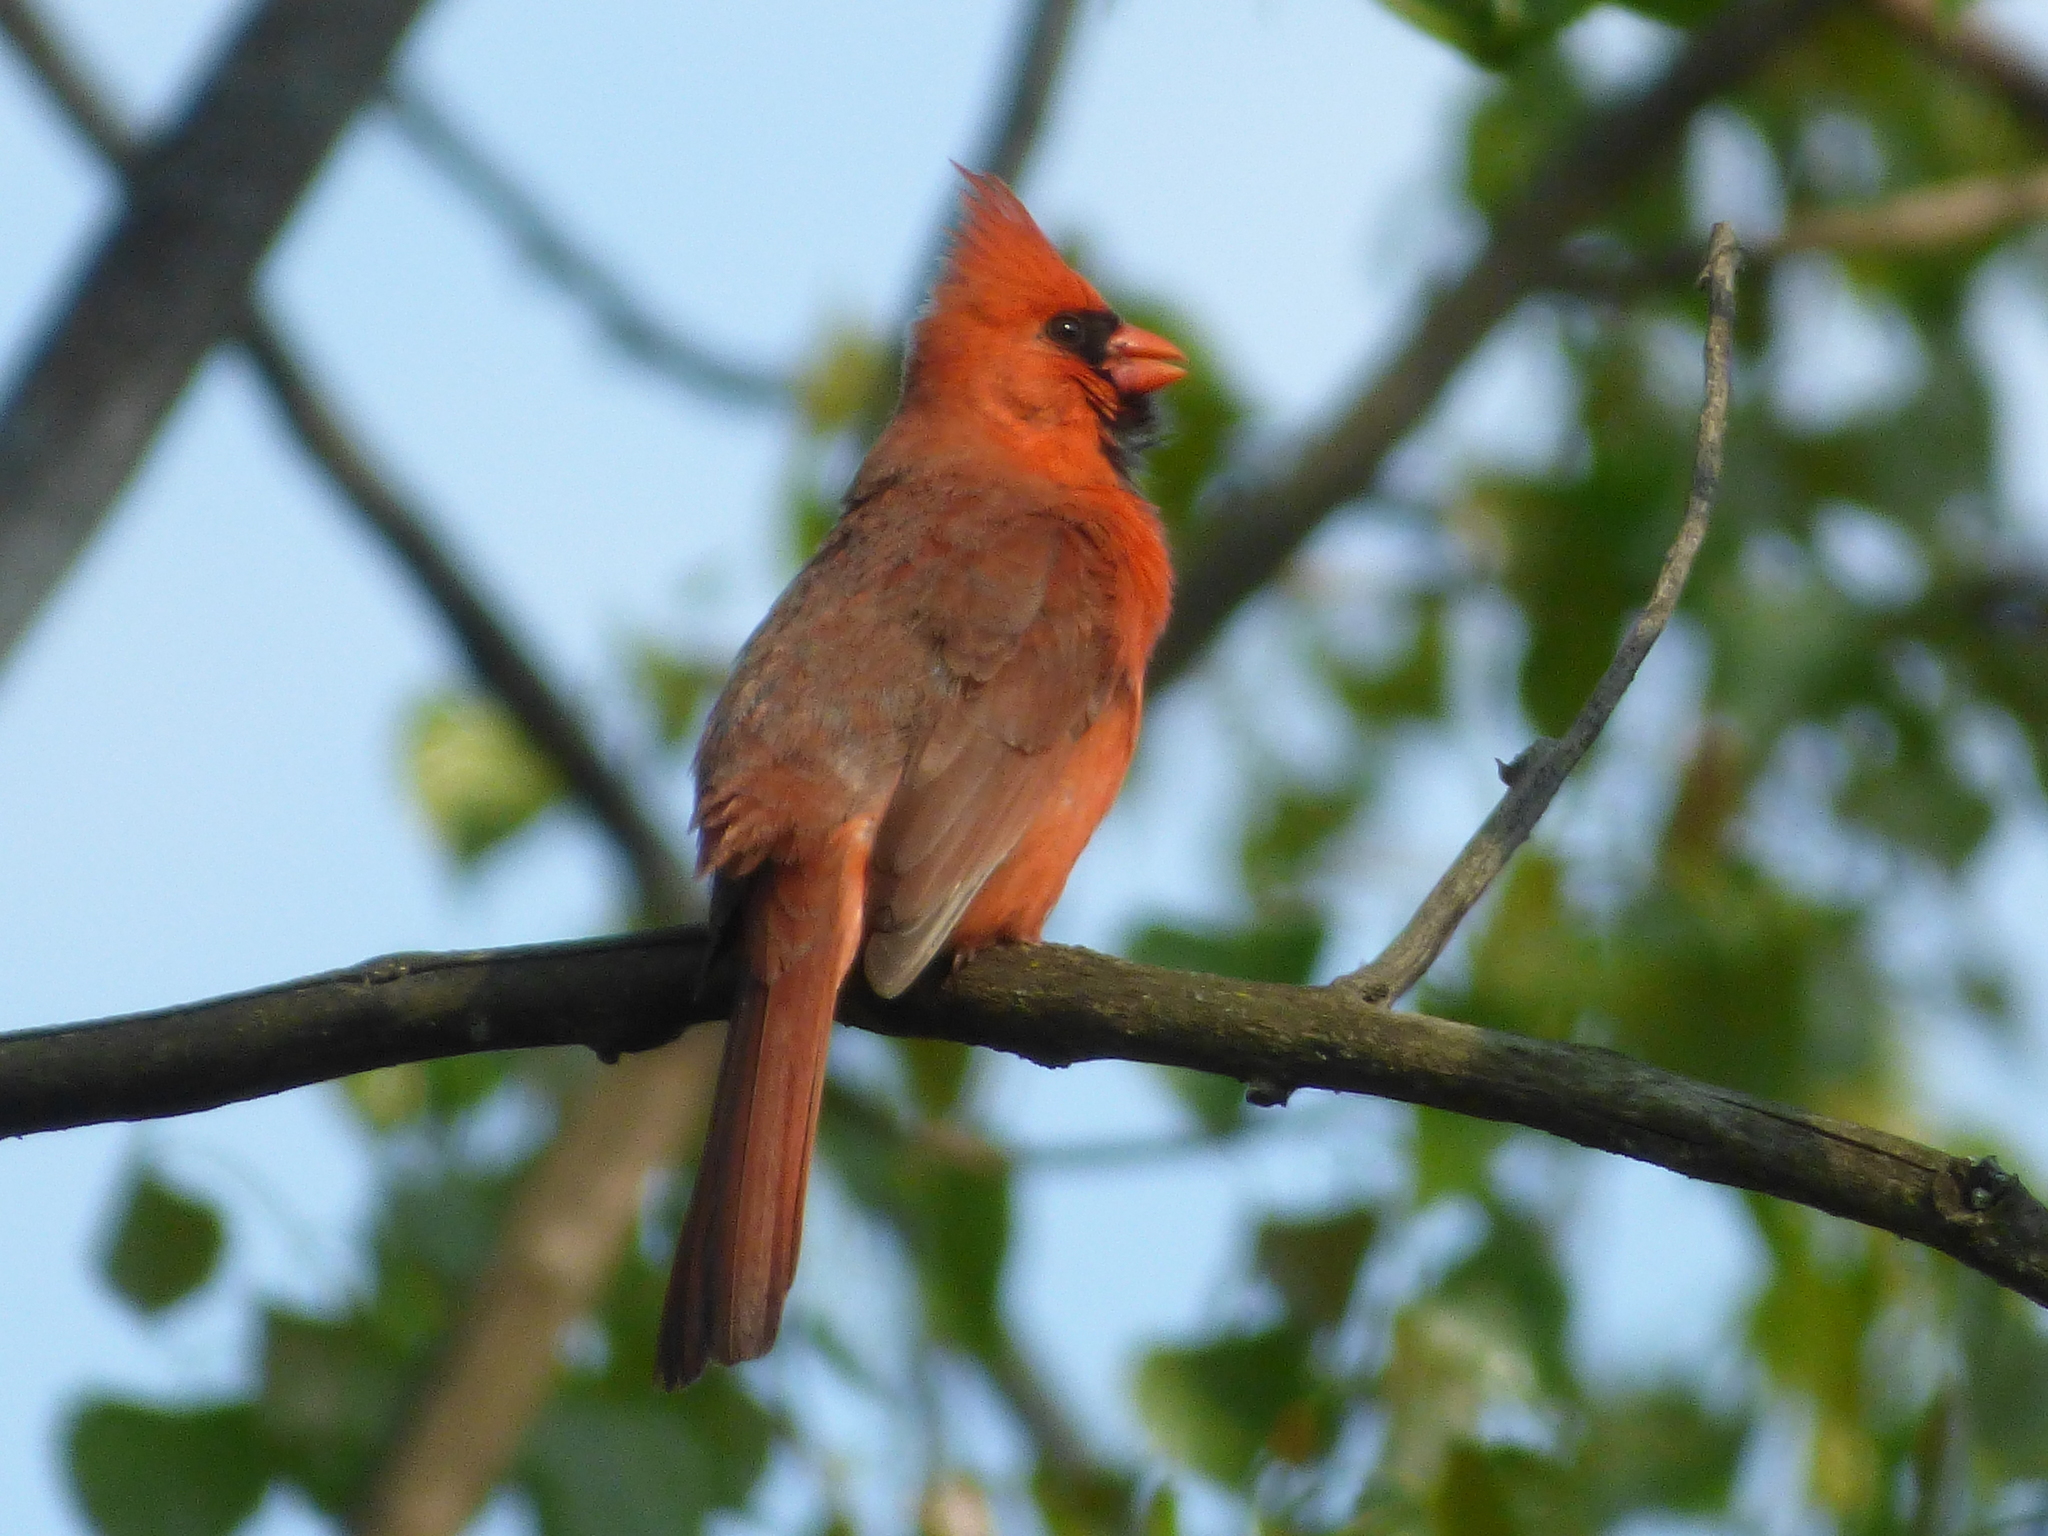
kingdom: Animalia
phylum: Chordata
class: Aves
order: Passeriformes
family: Cardinalidae
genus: Cardinalis
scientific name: Cardinalis cardinalis
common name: Northern cardinal
